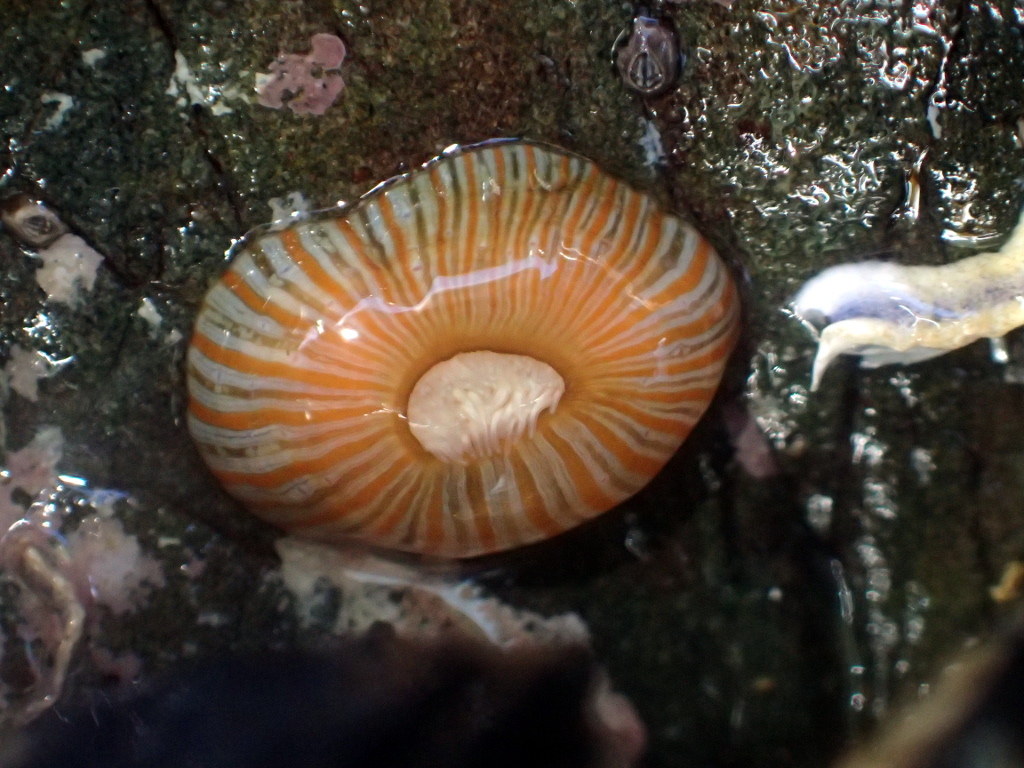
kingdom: Animalia
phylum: Cnidaria
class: Anthozoa
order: Actiniaria
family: Sagartiidae
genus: Anthothoe
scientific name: Anthothoe albocincta
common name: Orange striped anemone
